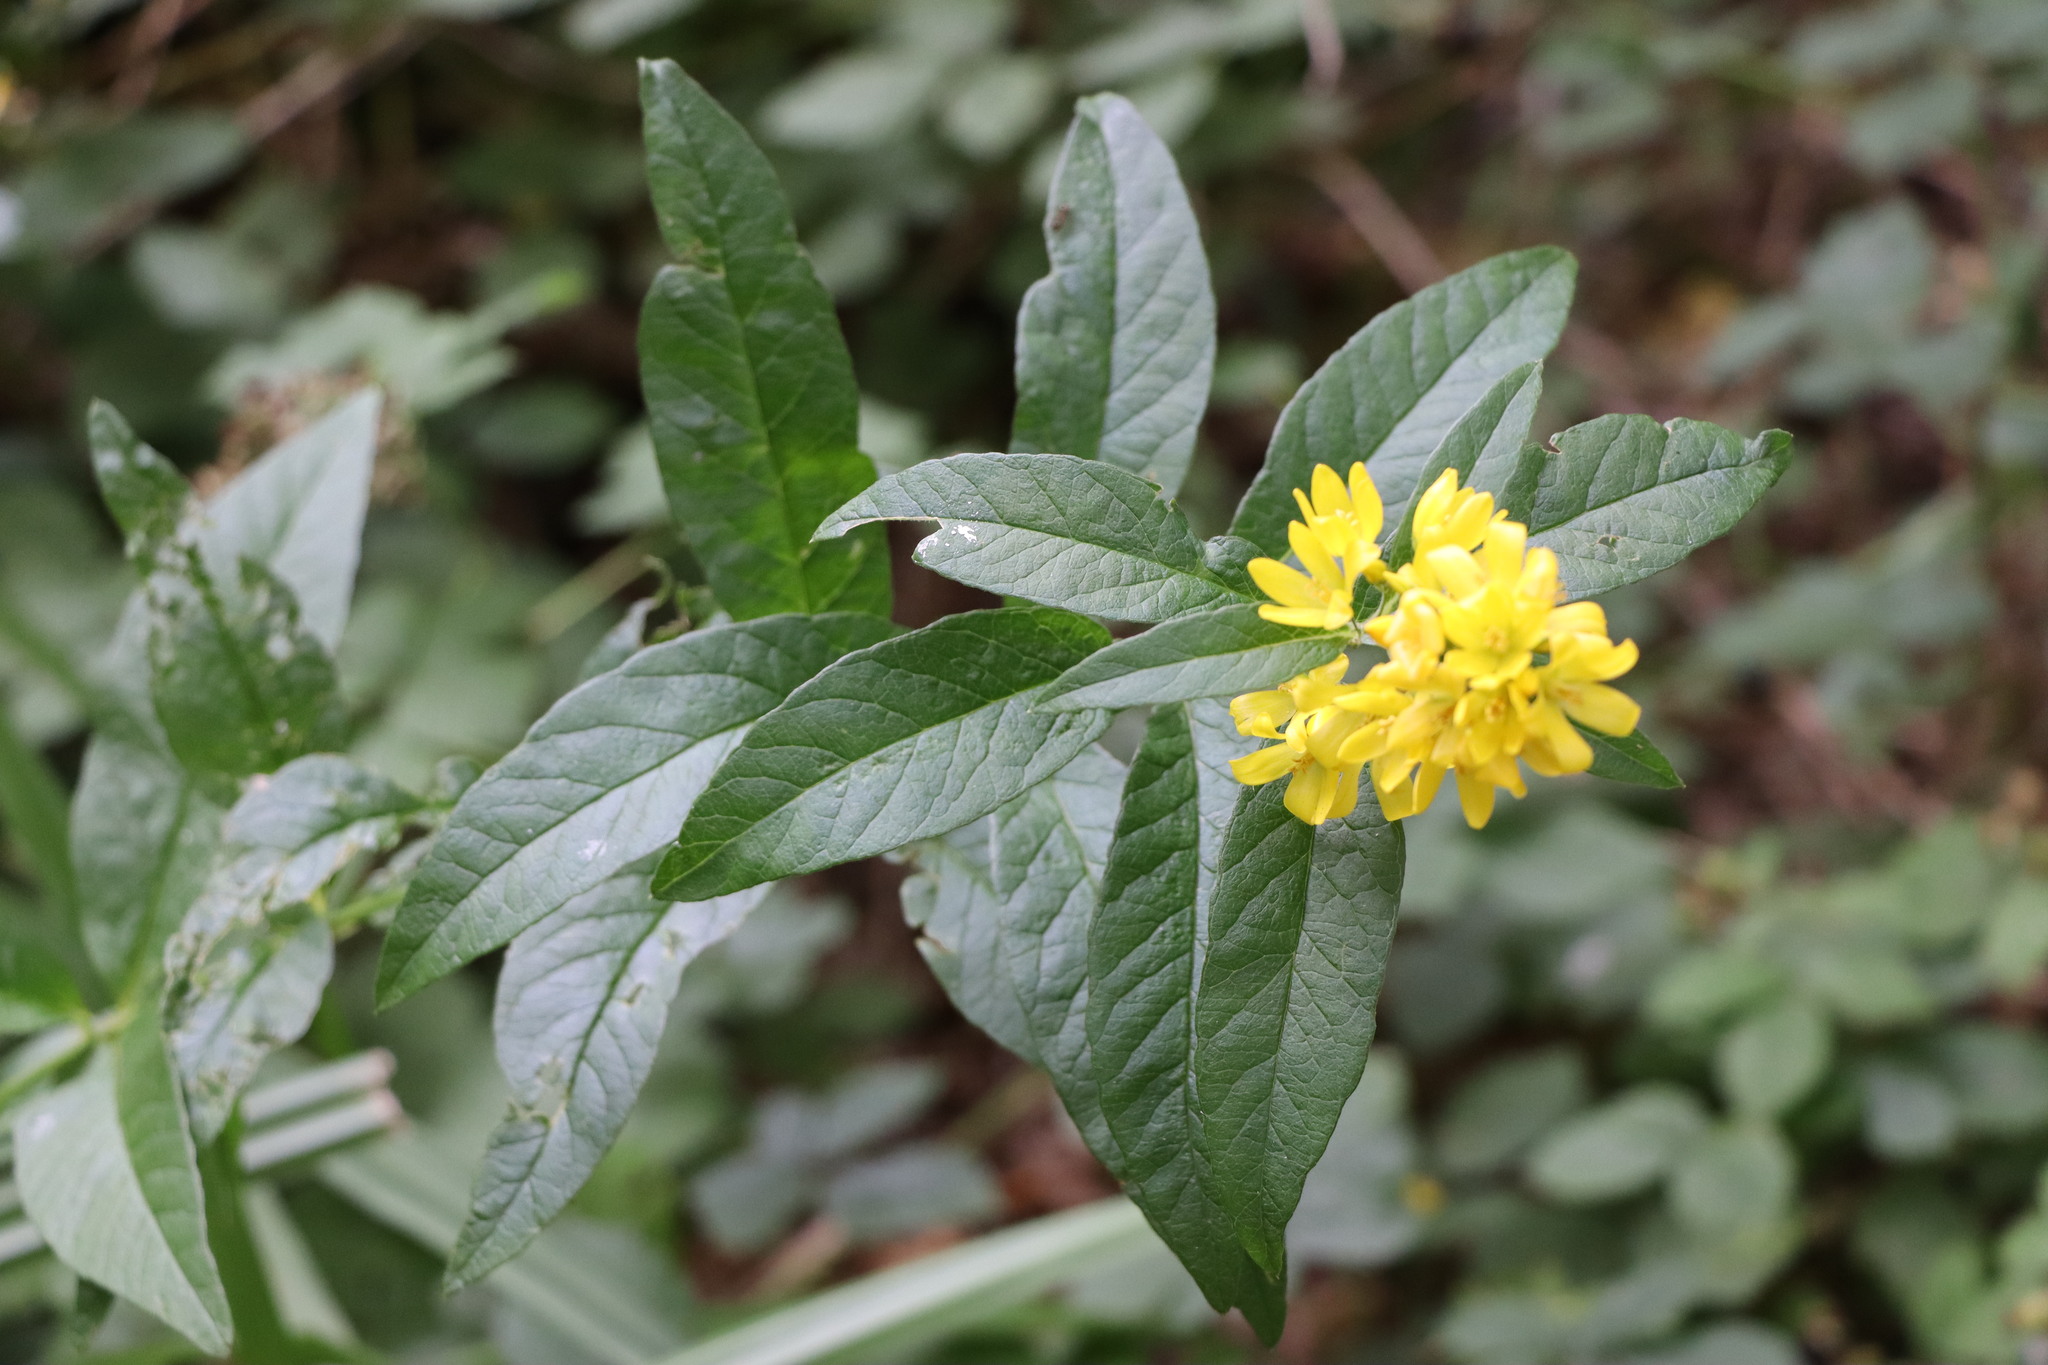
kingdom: Plantae
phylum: Tracheophyta
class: Magnoliopsida
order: Ericales
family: Primulaceae
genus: Lysimachia
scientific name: Lysimachia vulgaris
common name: Yellow loosestrife
